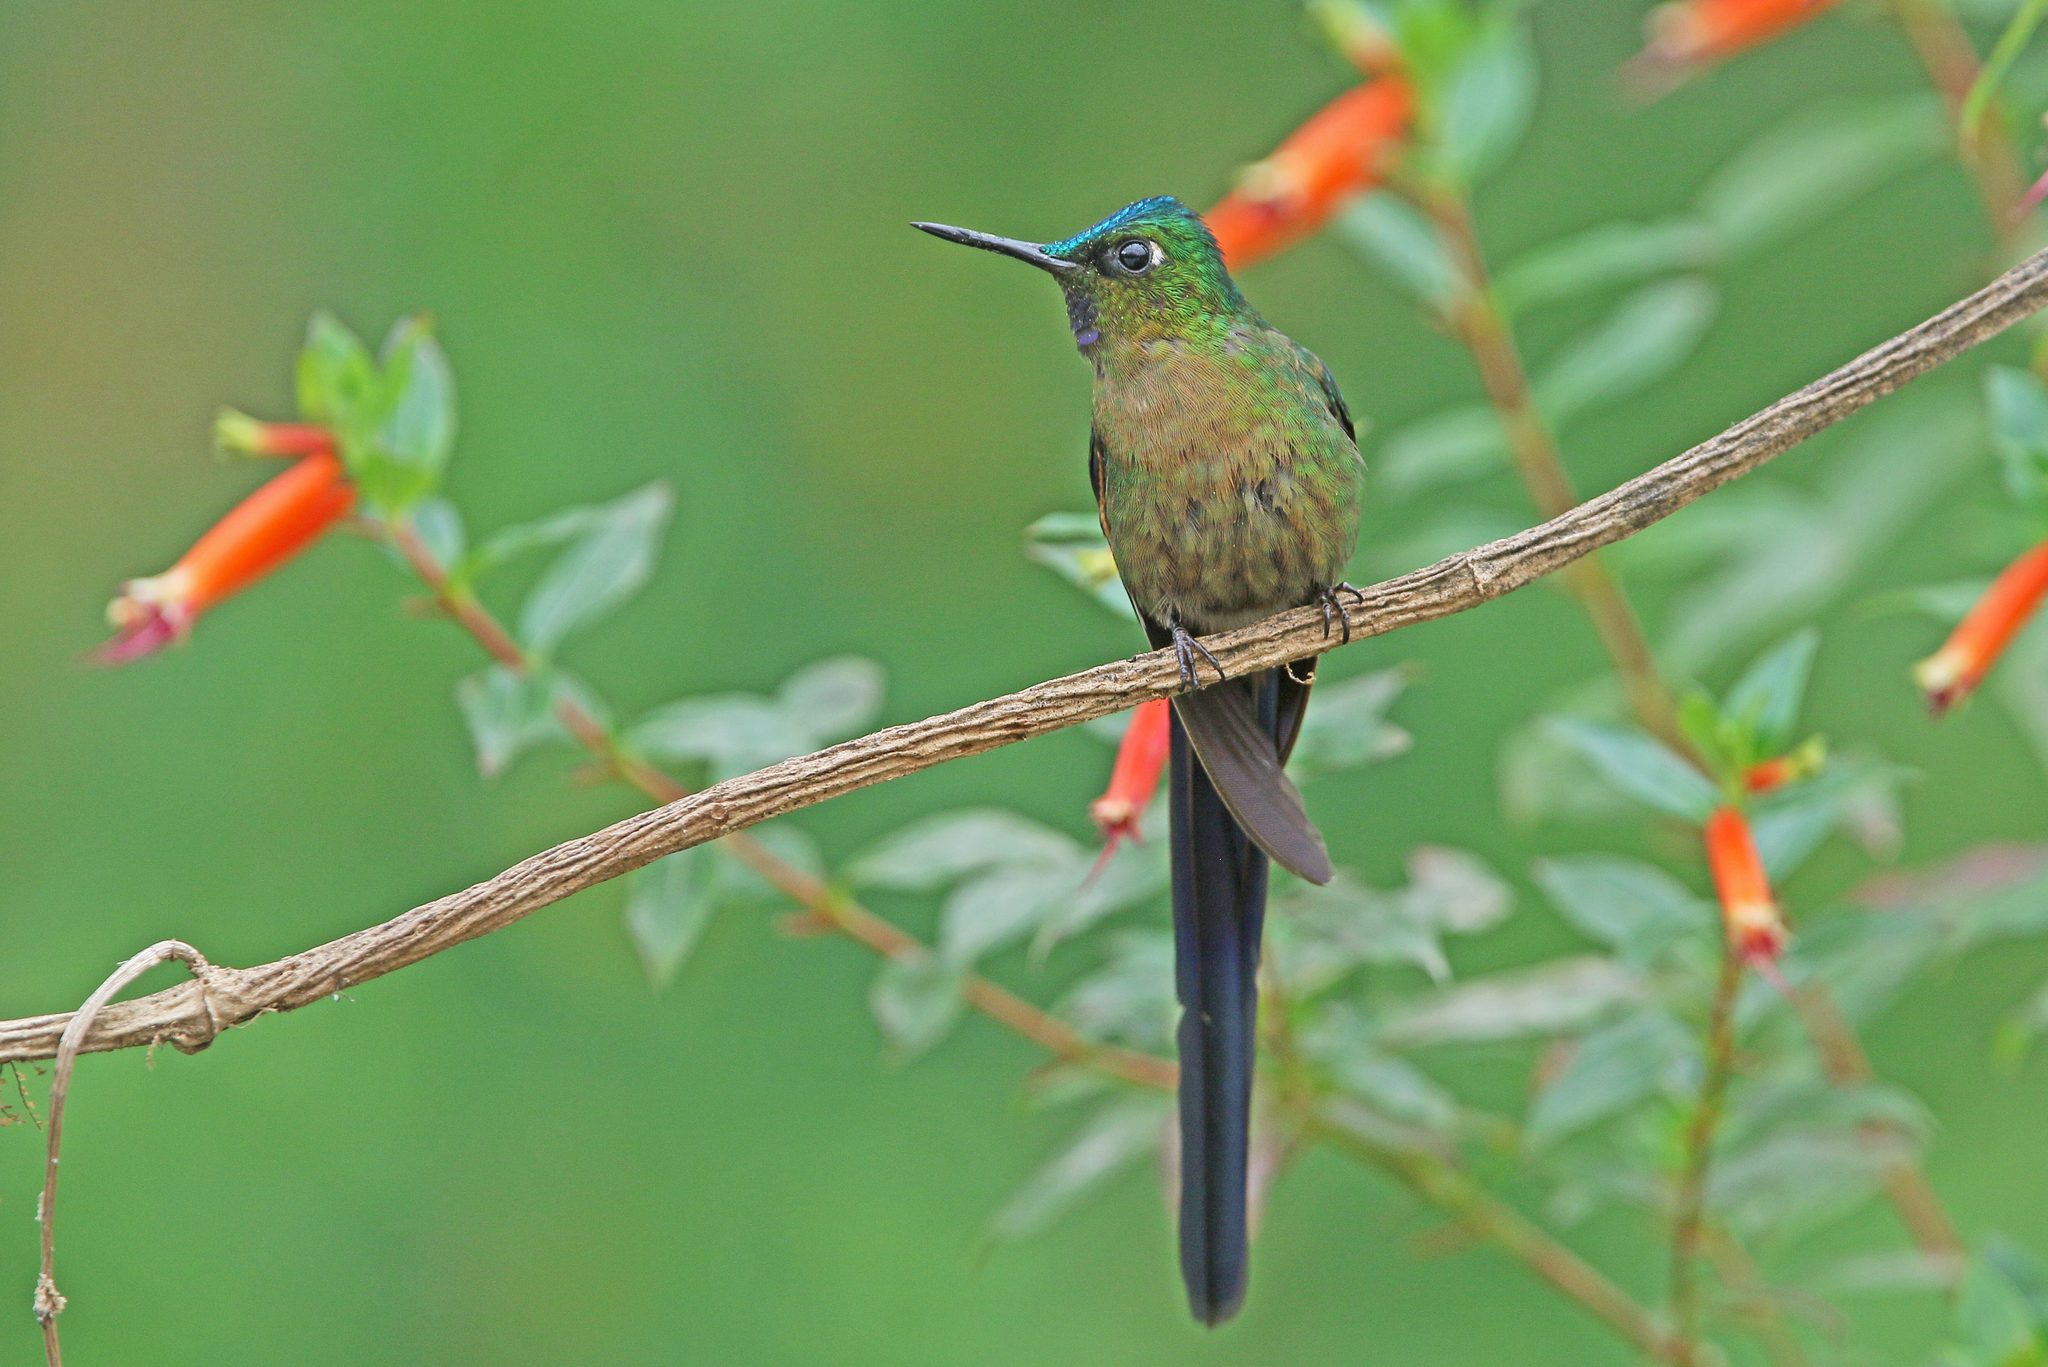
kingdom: Animalia
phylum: Chordata
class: Aves
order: Apodiformes
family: Trochilidae
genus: Aglaiocercus
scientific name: Aglaiocercus coelestis
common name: Violet-tailed sylph
